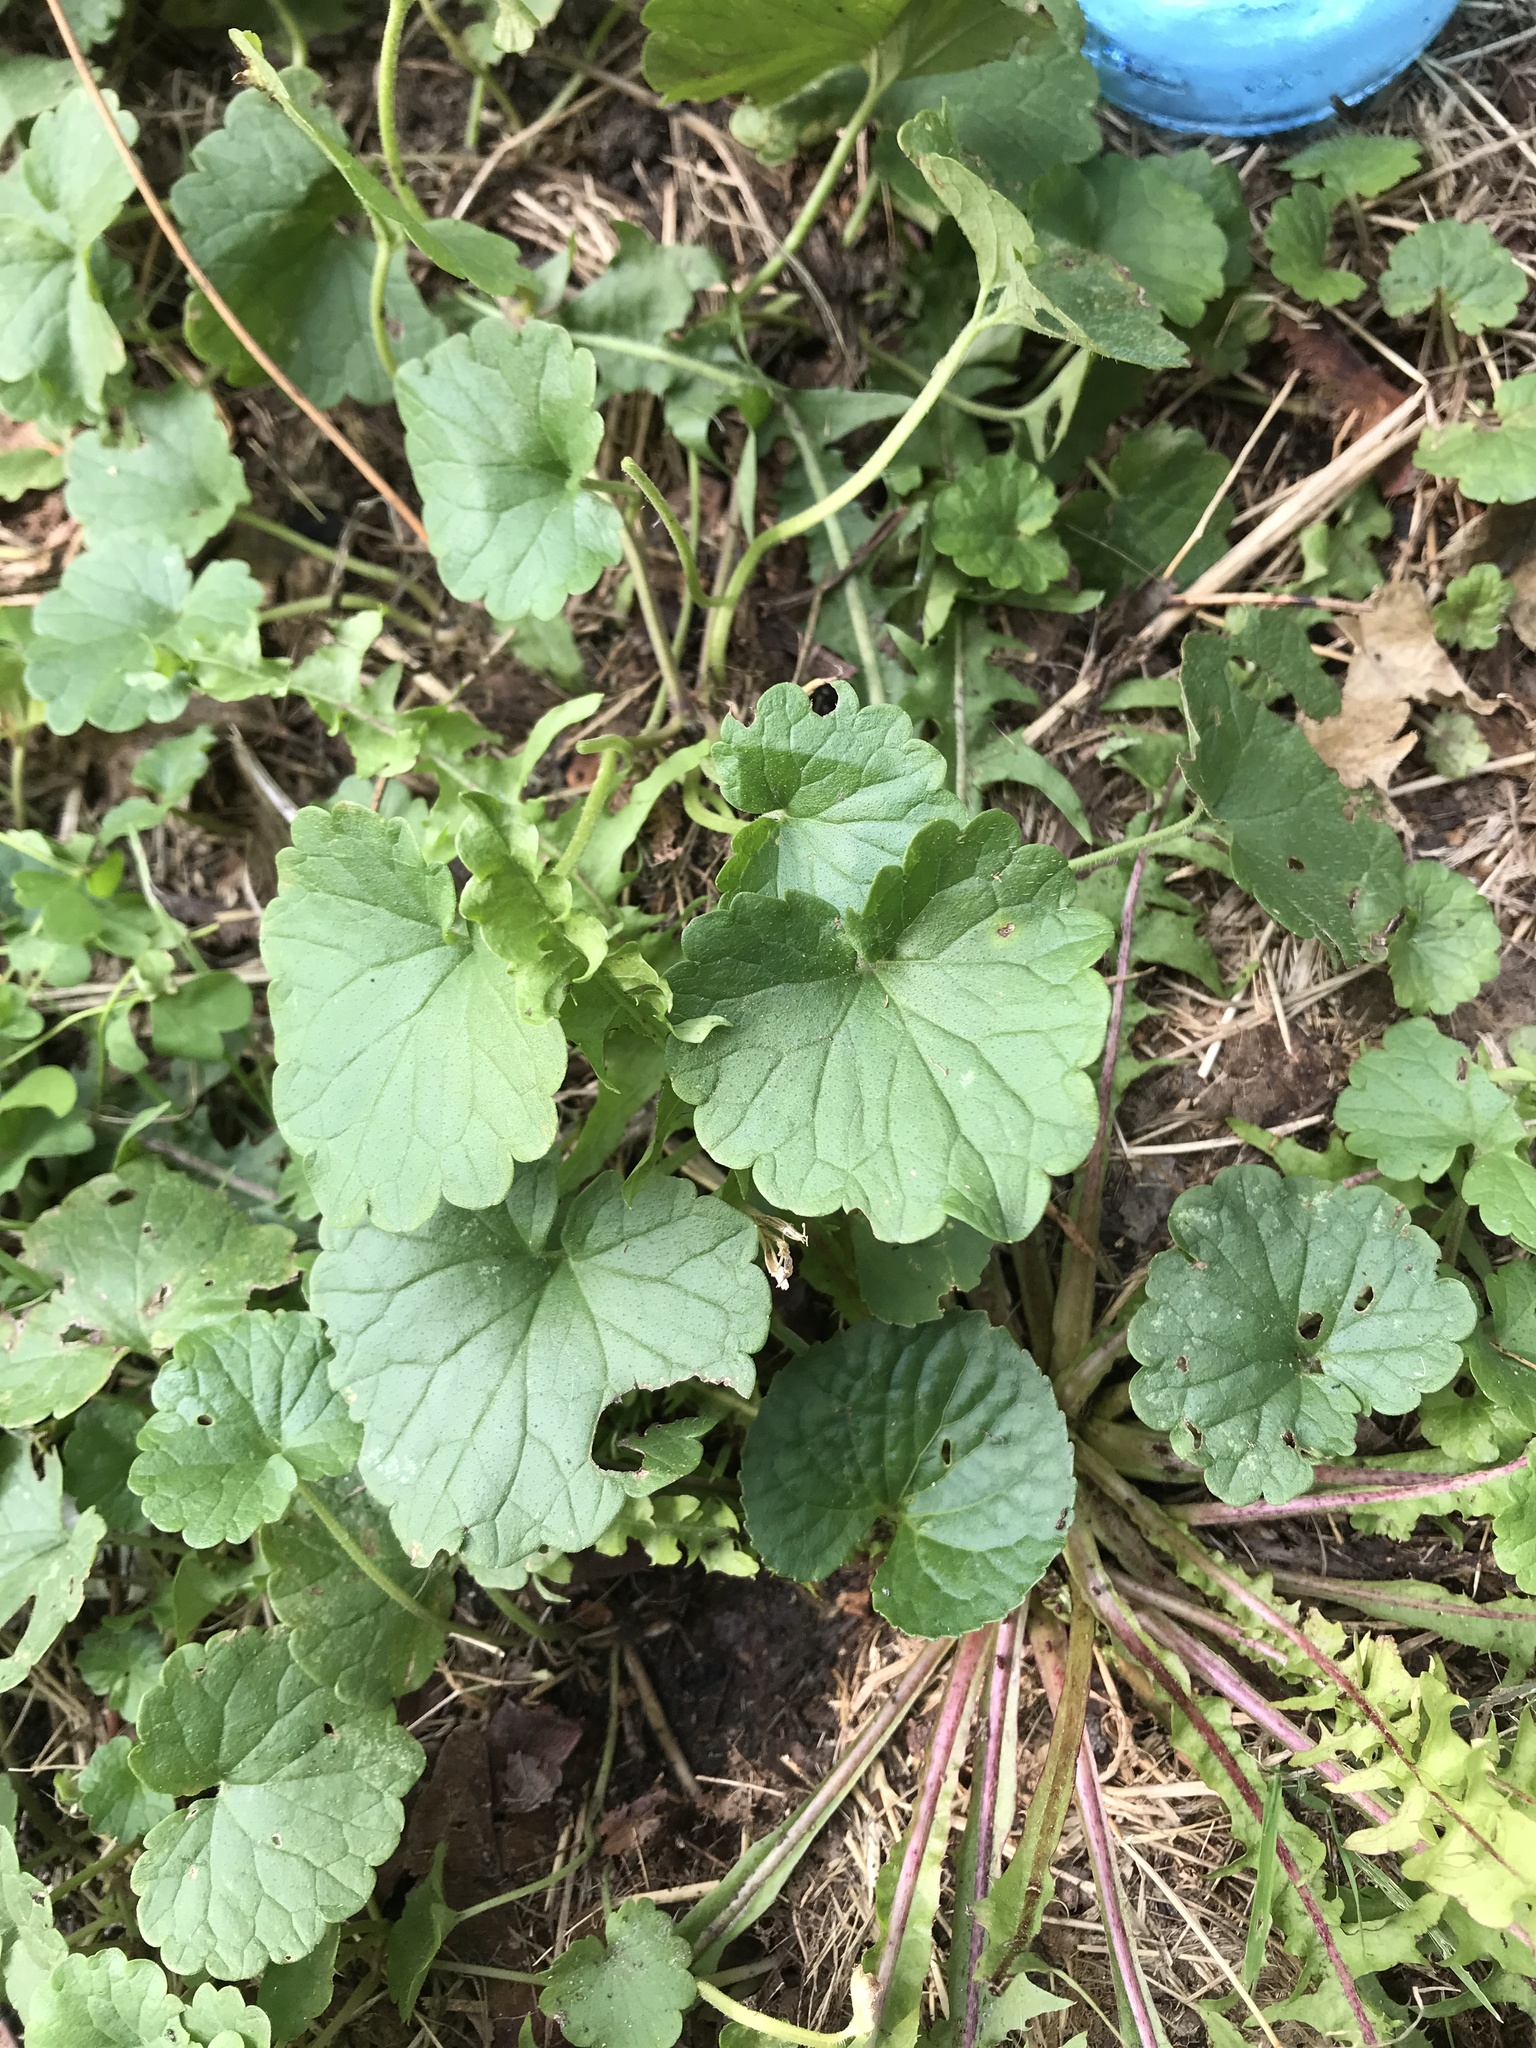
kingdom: Plantae
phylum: Tracheophyta
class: Magnoliopsida
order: Lamiales
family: Lamiaceae
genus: Glechoma
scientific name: Glechoma hederacea
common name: Ground ivy
